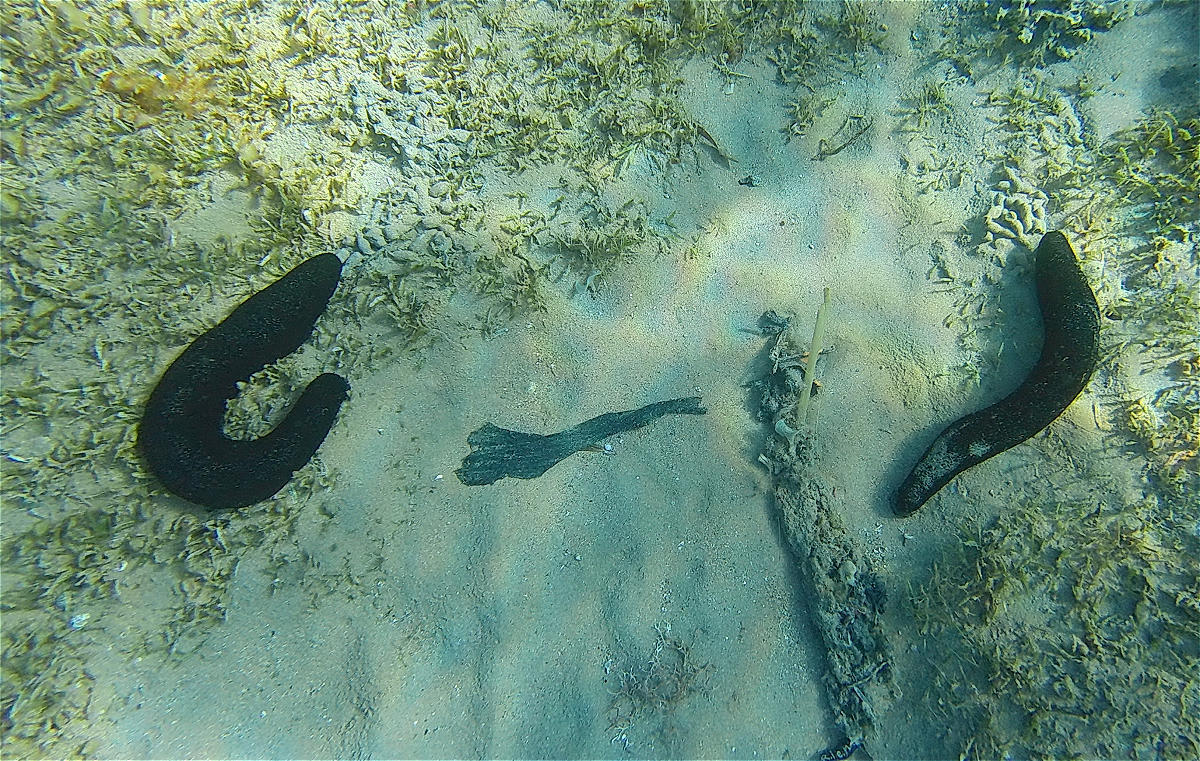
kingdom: Animalia
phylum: Echinodermata
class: Holothuroidea
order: Holothuriida
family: Holothuriidae
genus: Holothuria
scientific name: Holothuria atra
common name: Lollyfish
